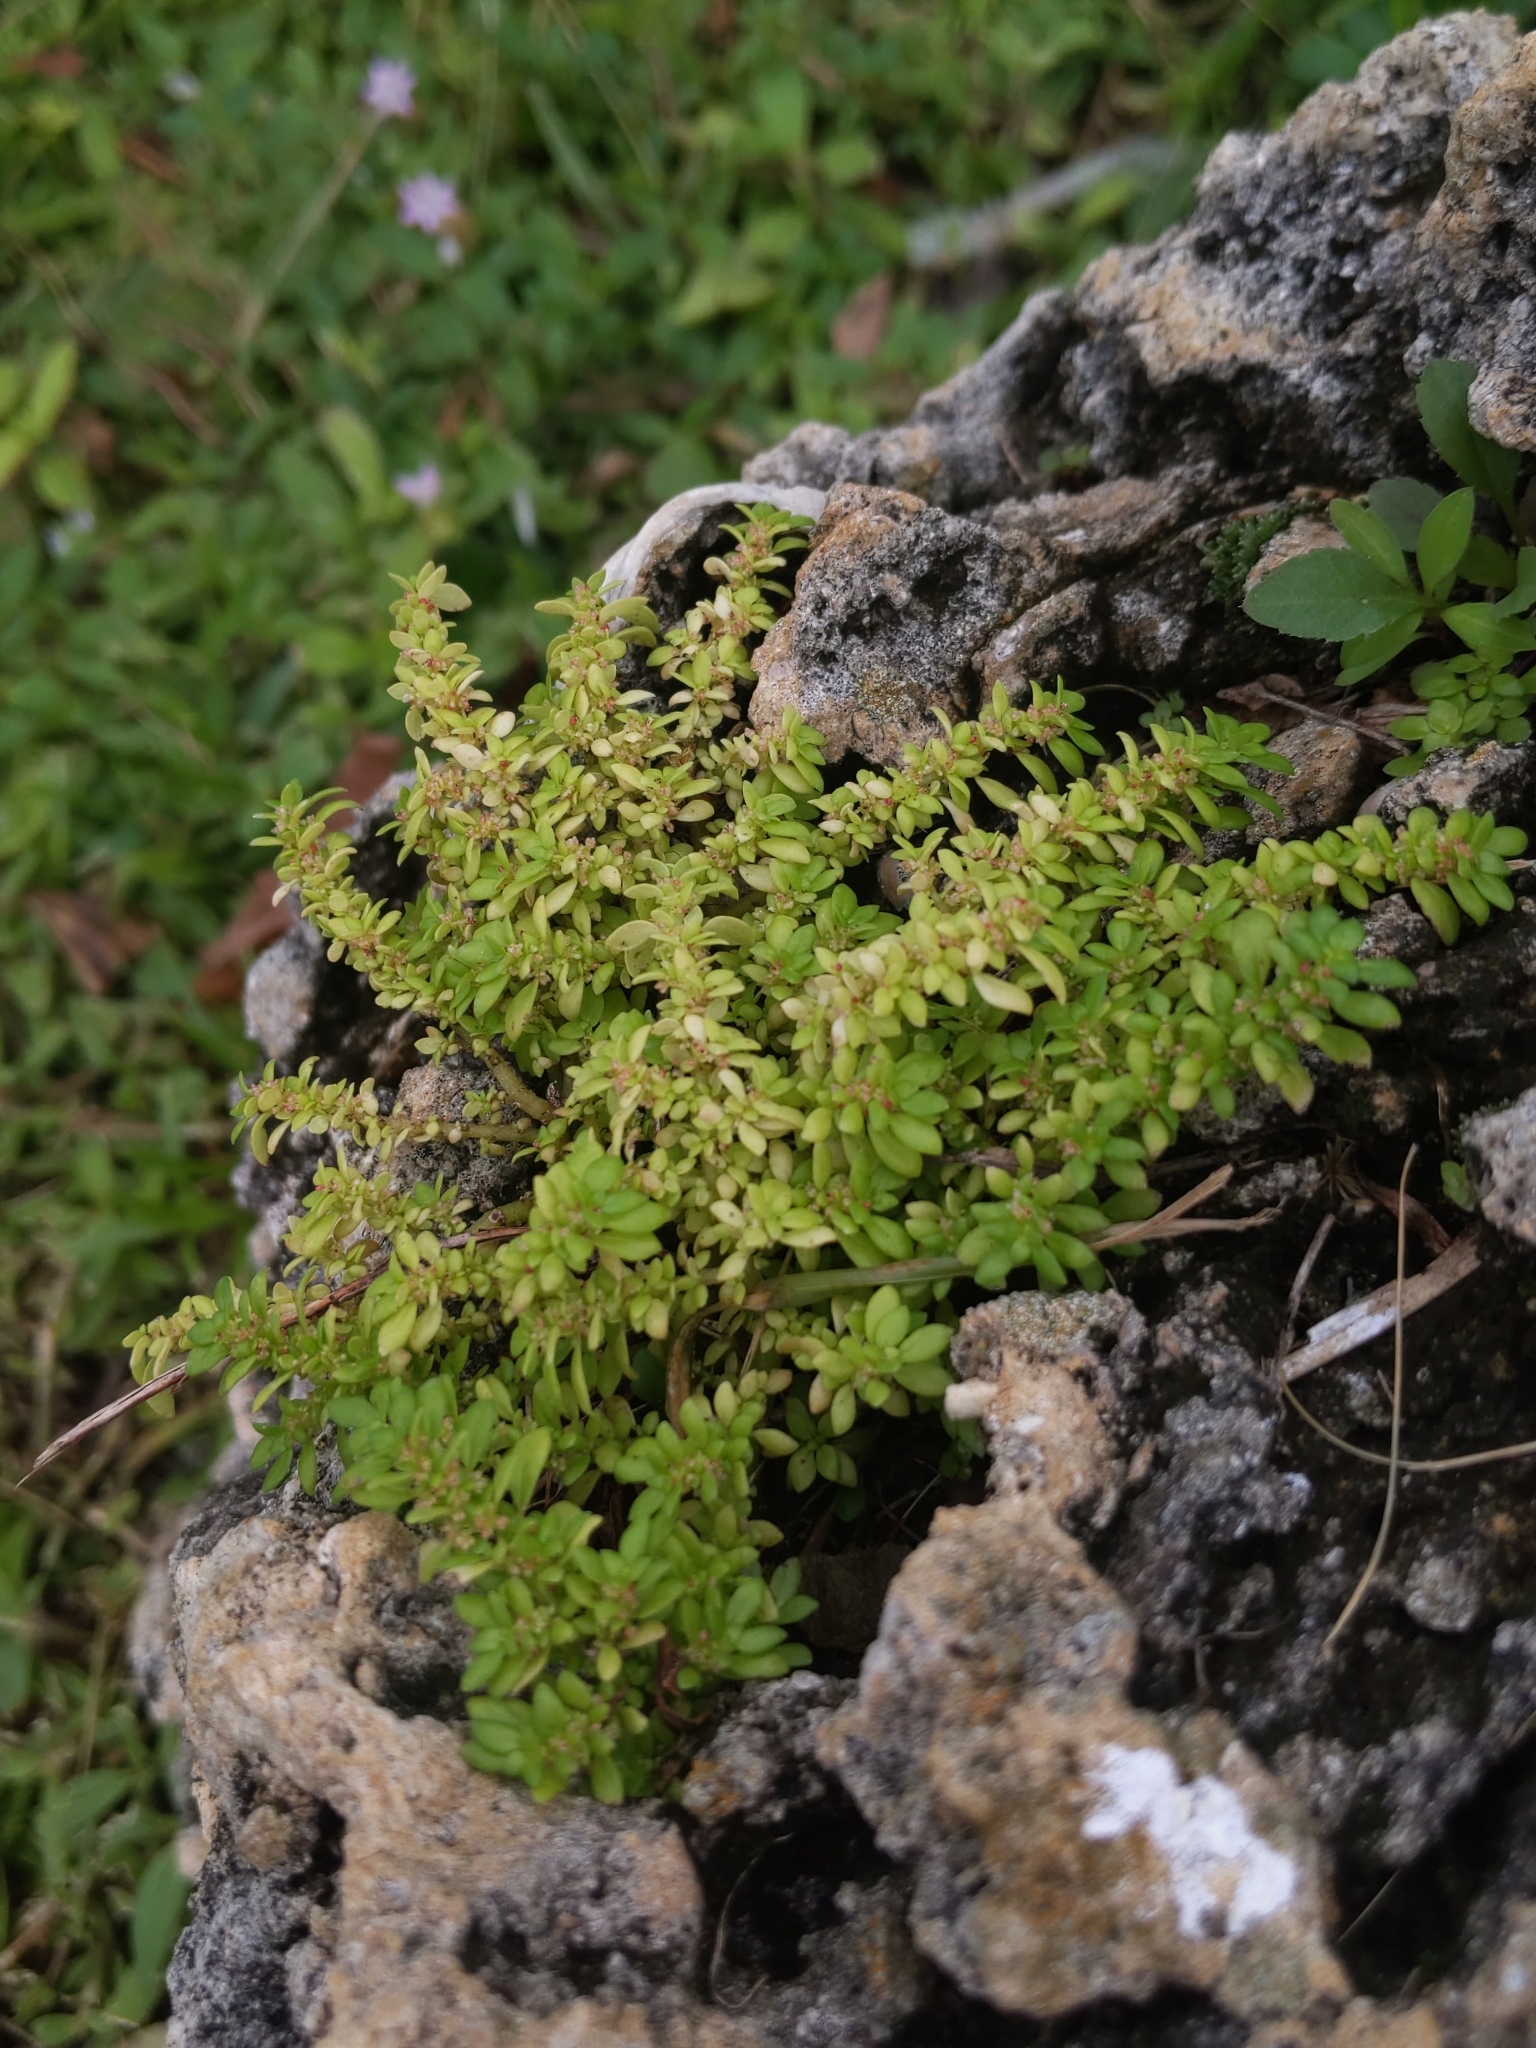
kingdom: Plantae
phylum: Tracheophyta
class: Magnoliopsida
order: Rosales
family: Urticaceae
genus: Pilea
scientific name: Pilea microphylla
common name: Artillery-plant
